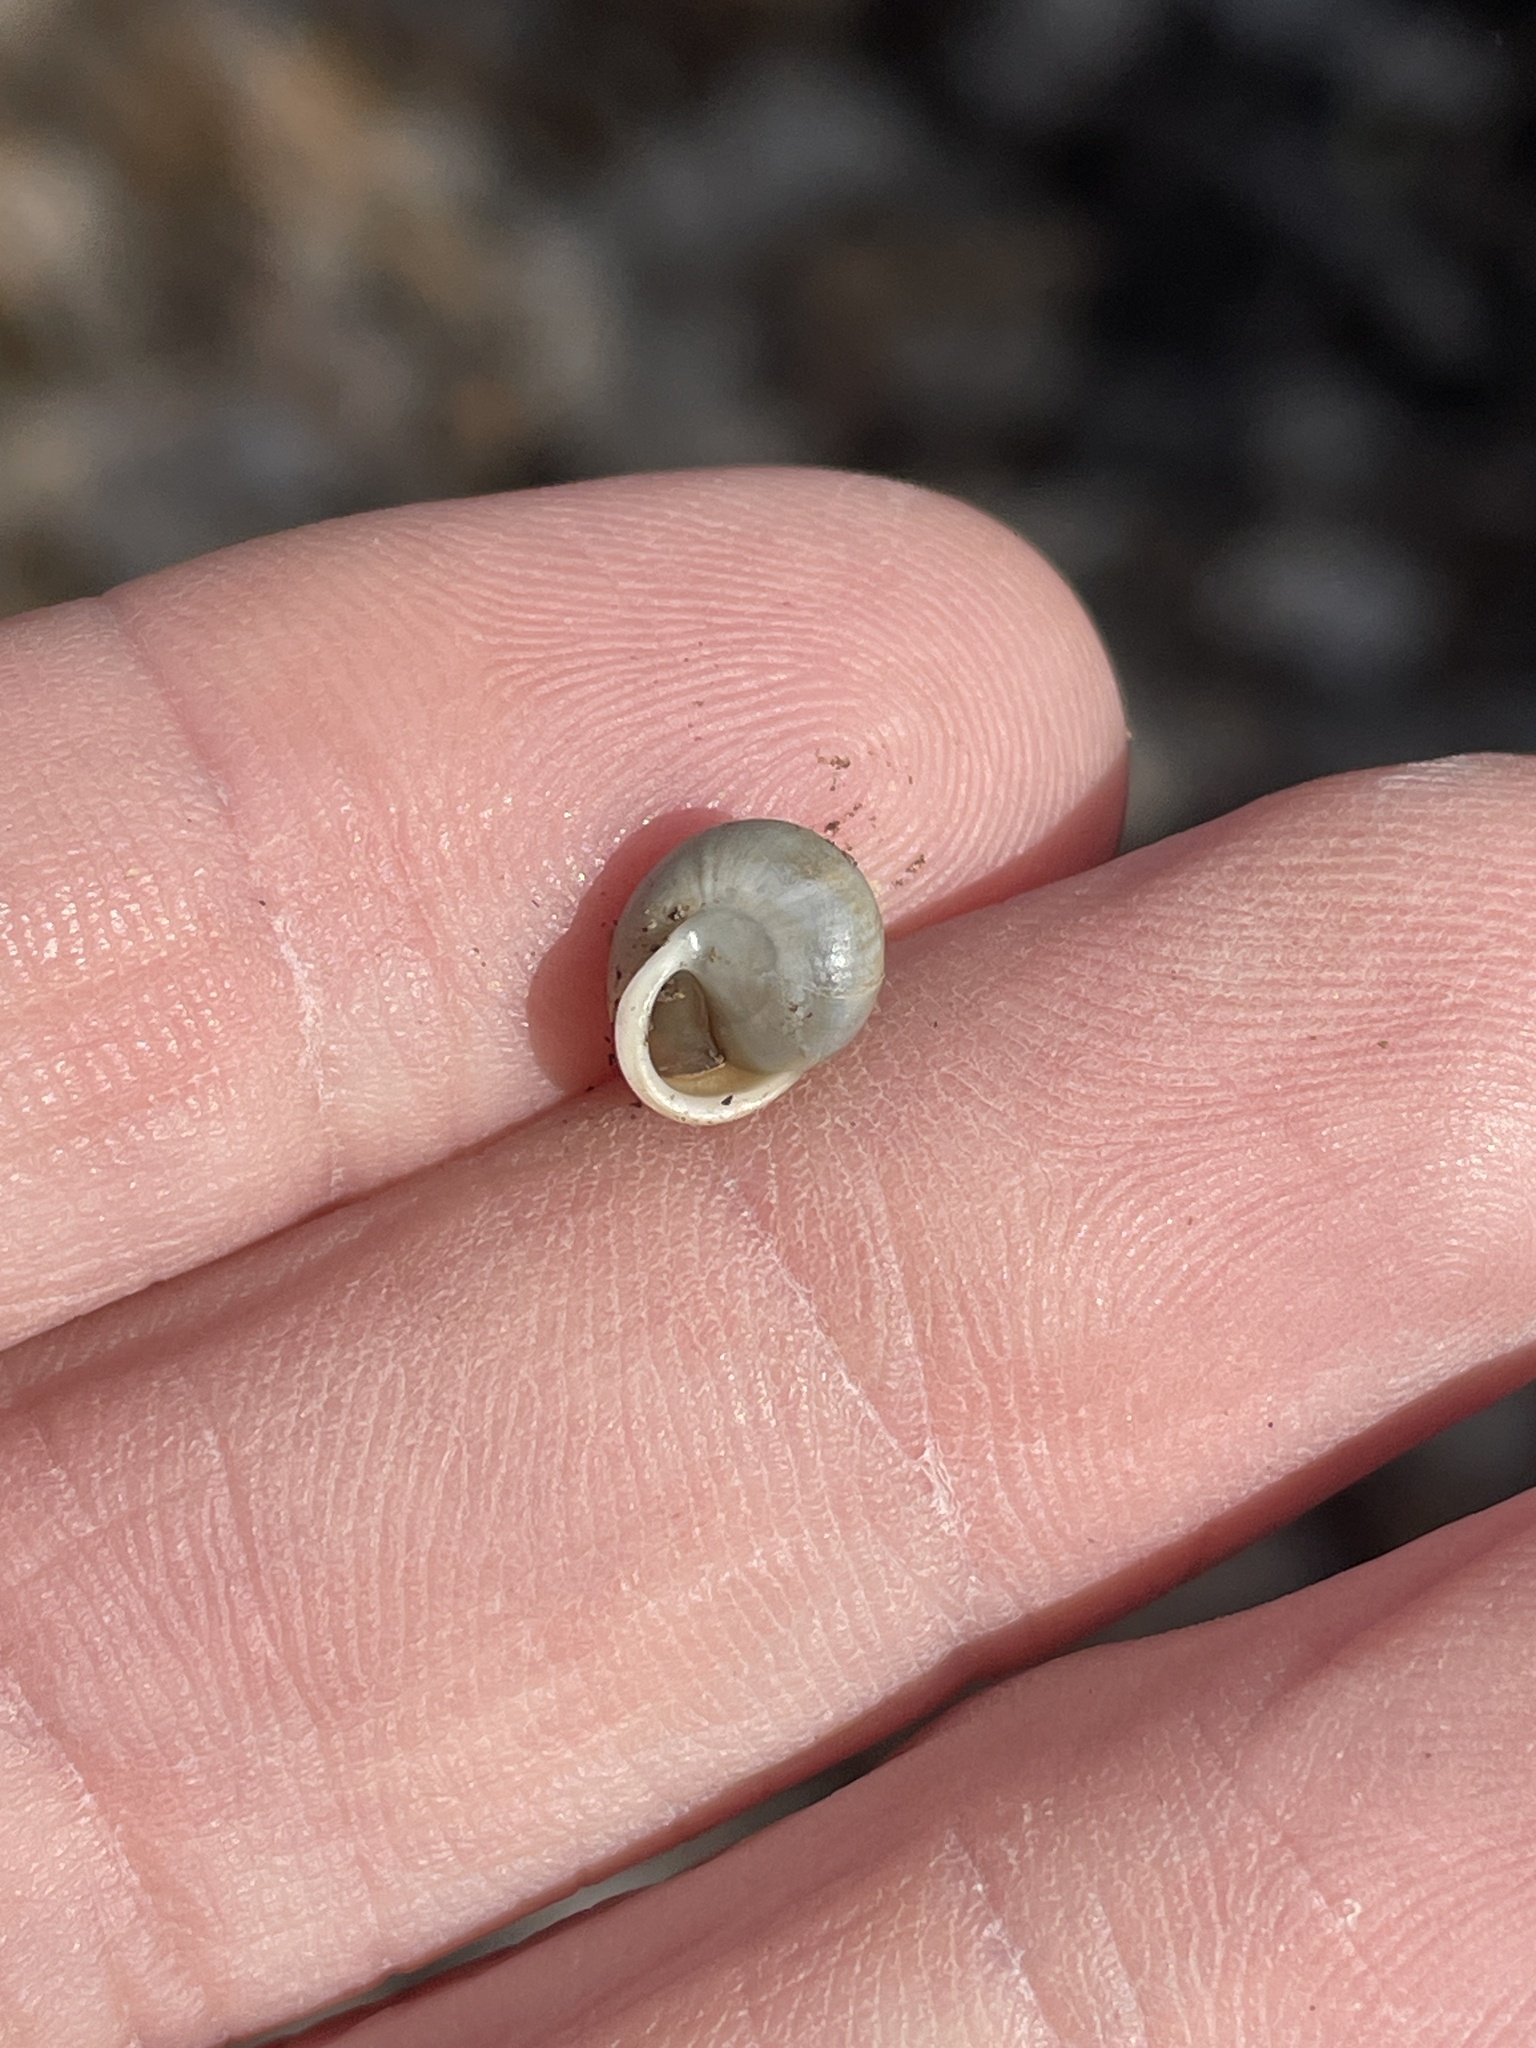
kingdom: Animalia
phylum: Mollusca
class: Gastropoda
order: Cycloneritida
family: Helicinidae
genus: Helicina
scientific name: Helicina orbiculata
